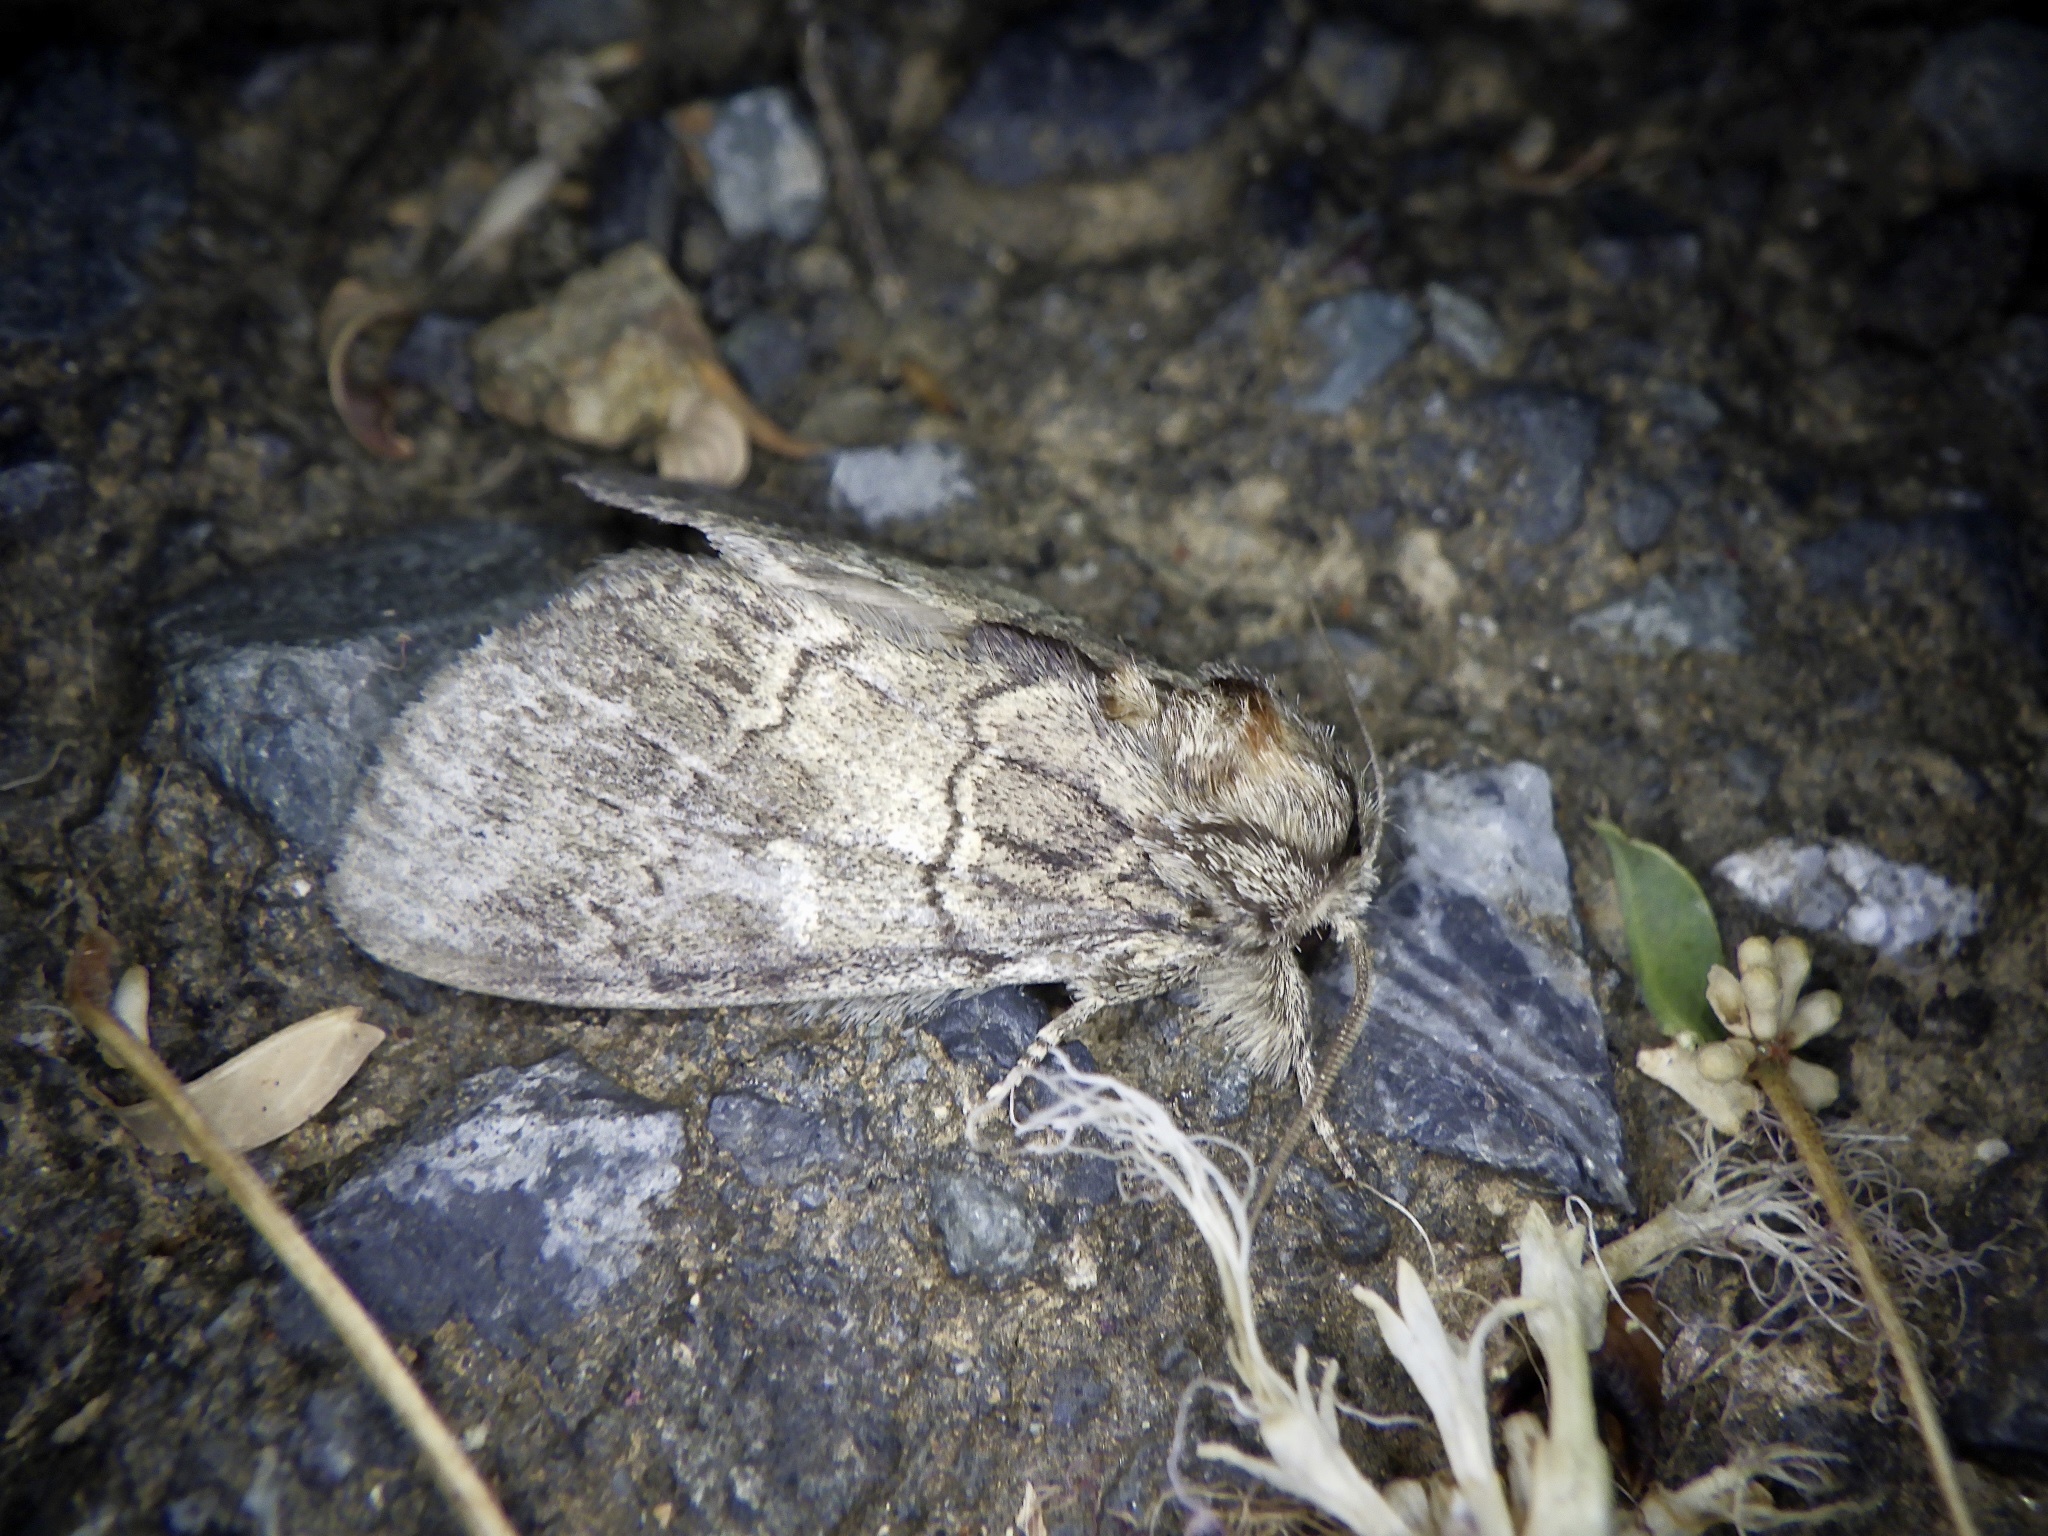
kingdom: Animalia
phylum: Arthropoda
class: Insecta
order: Lepidoptera
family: Notodontidae
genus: Peridea
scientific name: Peridea oberthueri
